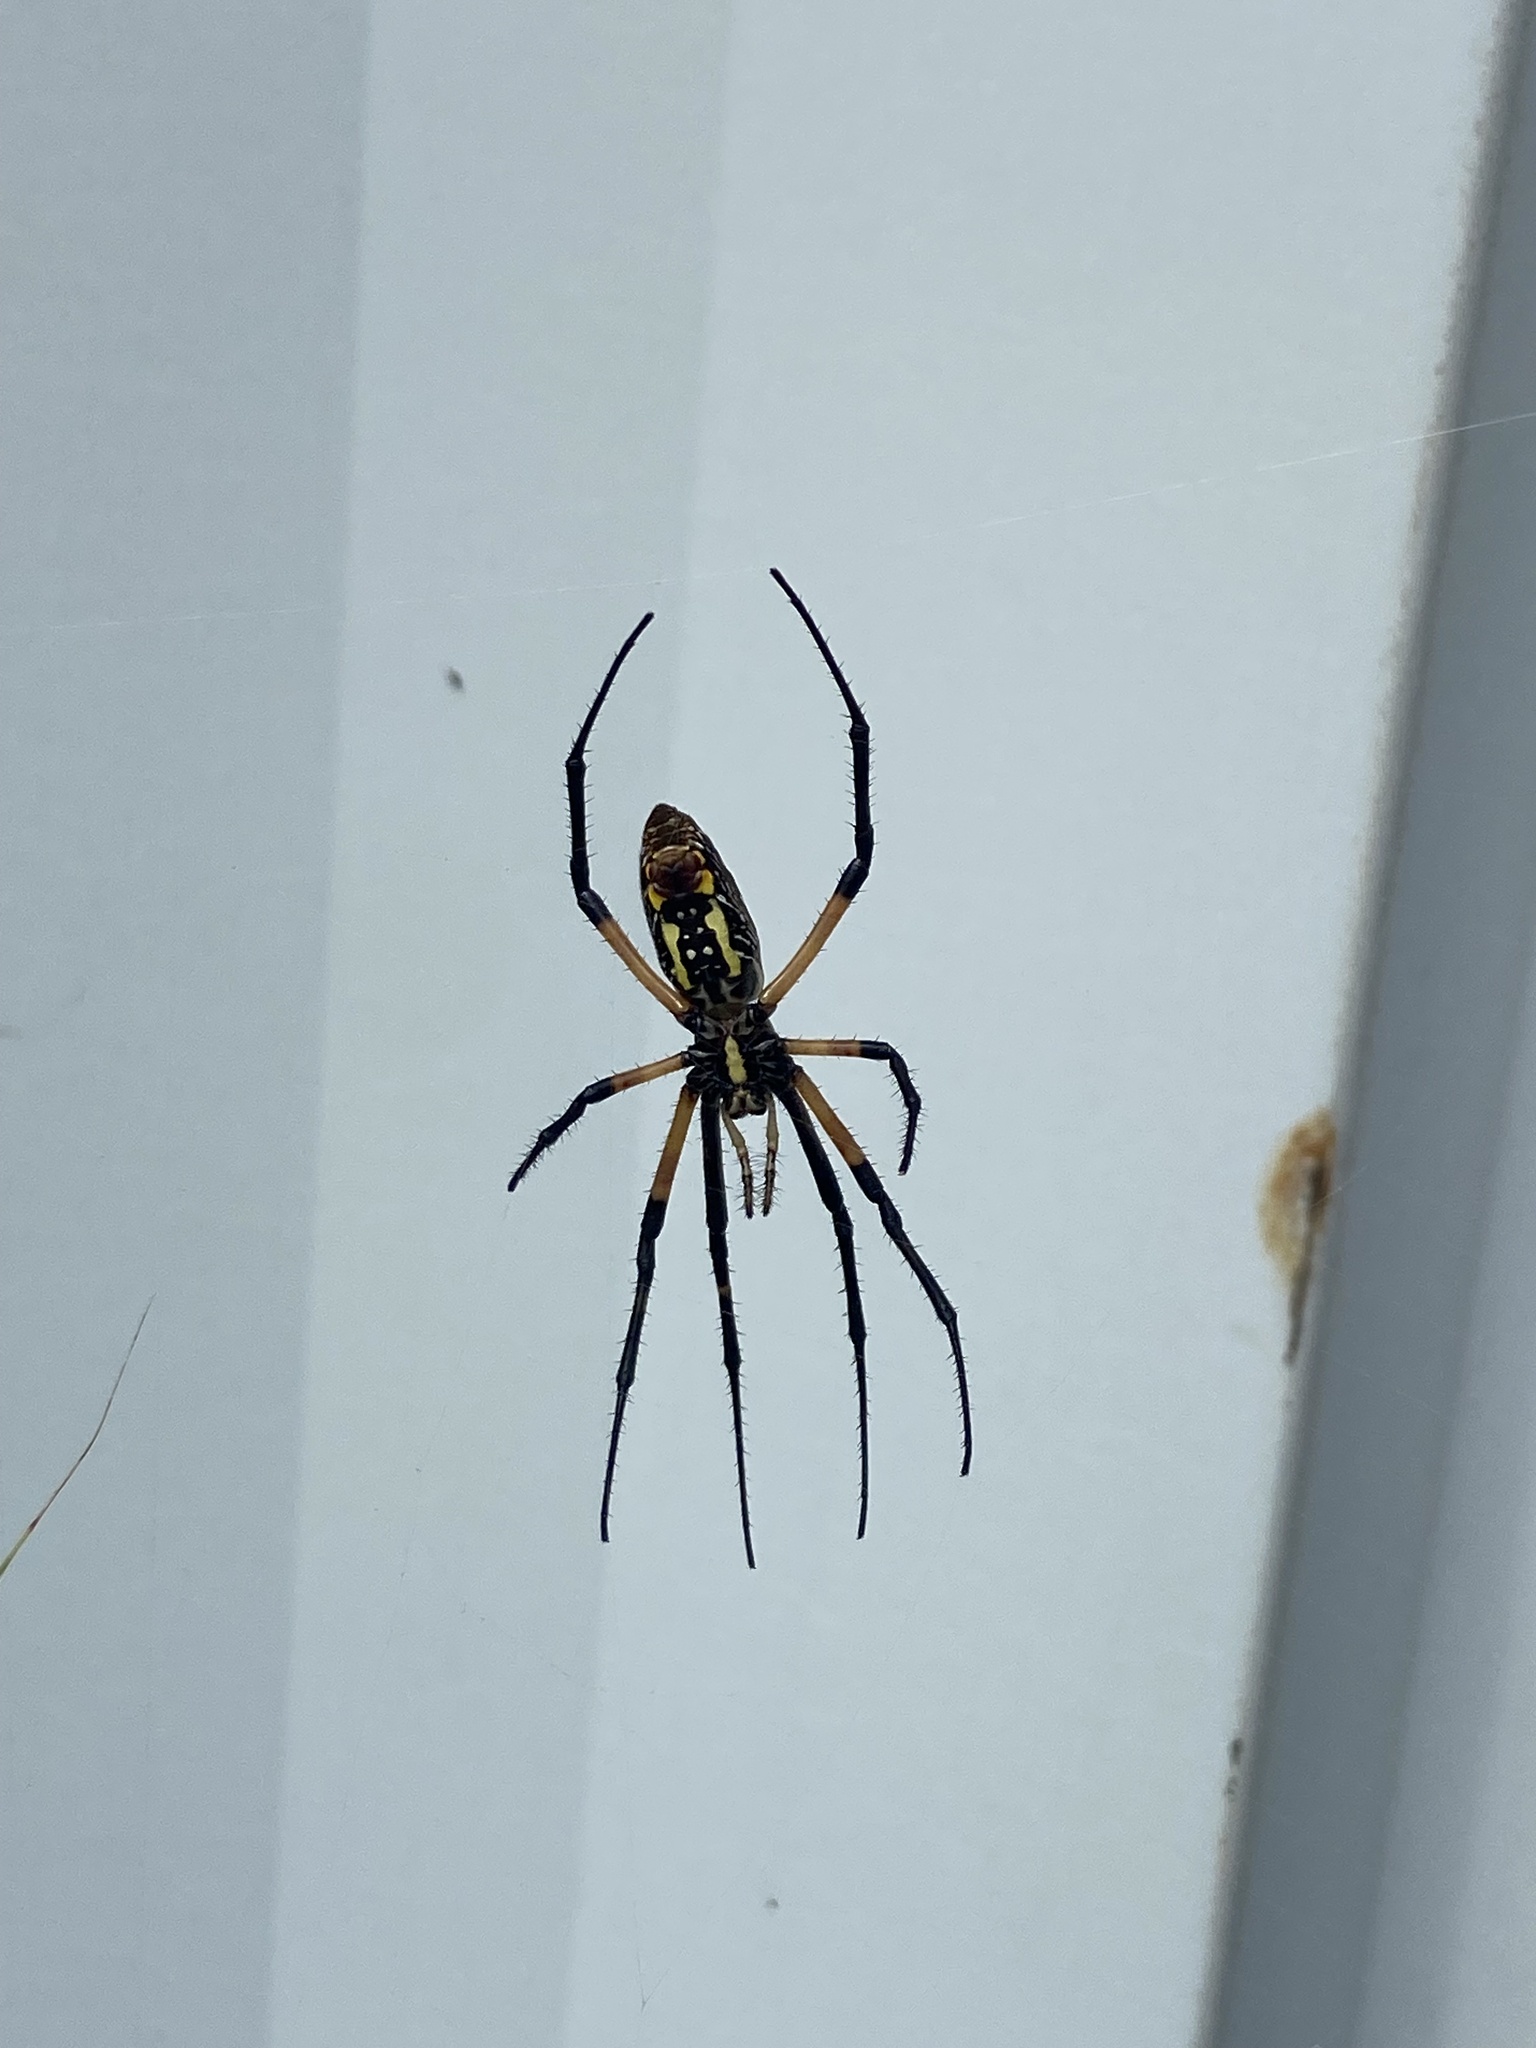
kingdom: Animalia
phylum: Arthropoda
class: Arachnida
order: Araneae
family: Araneidae
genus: Argiope
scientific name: Argiope aurantia
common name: Orb weavers
